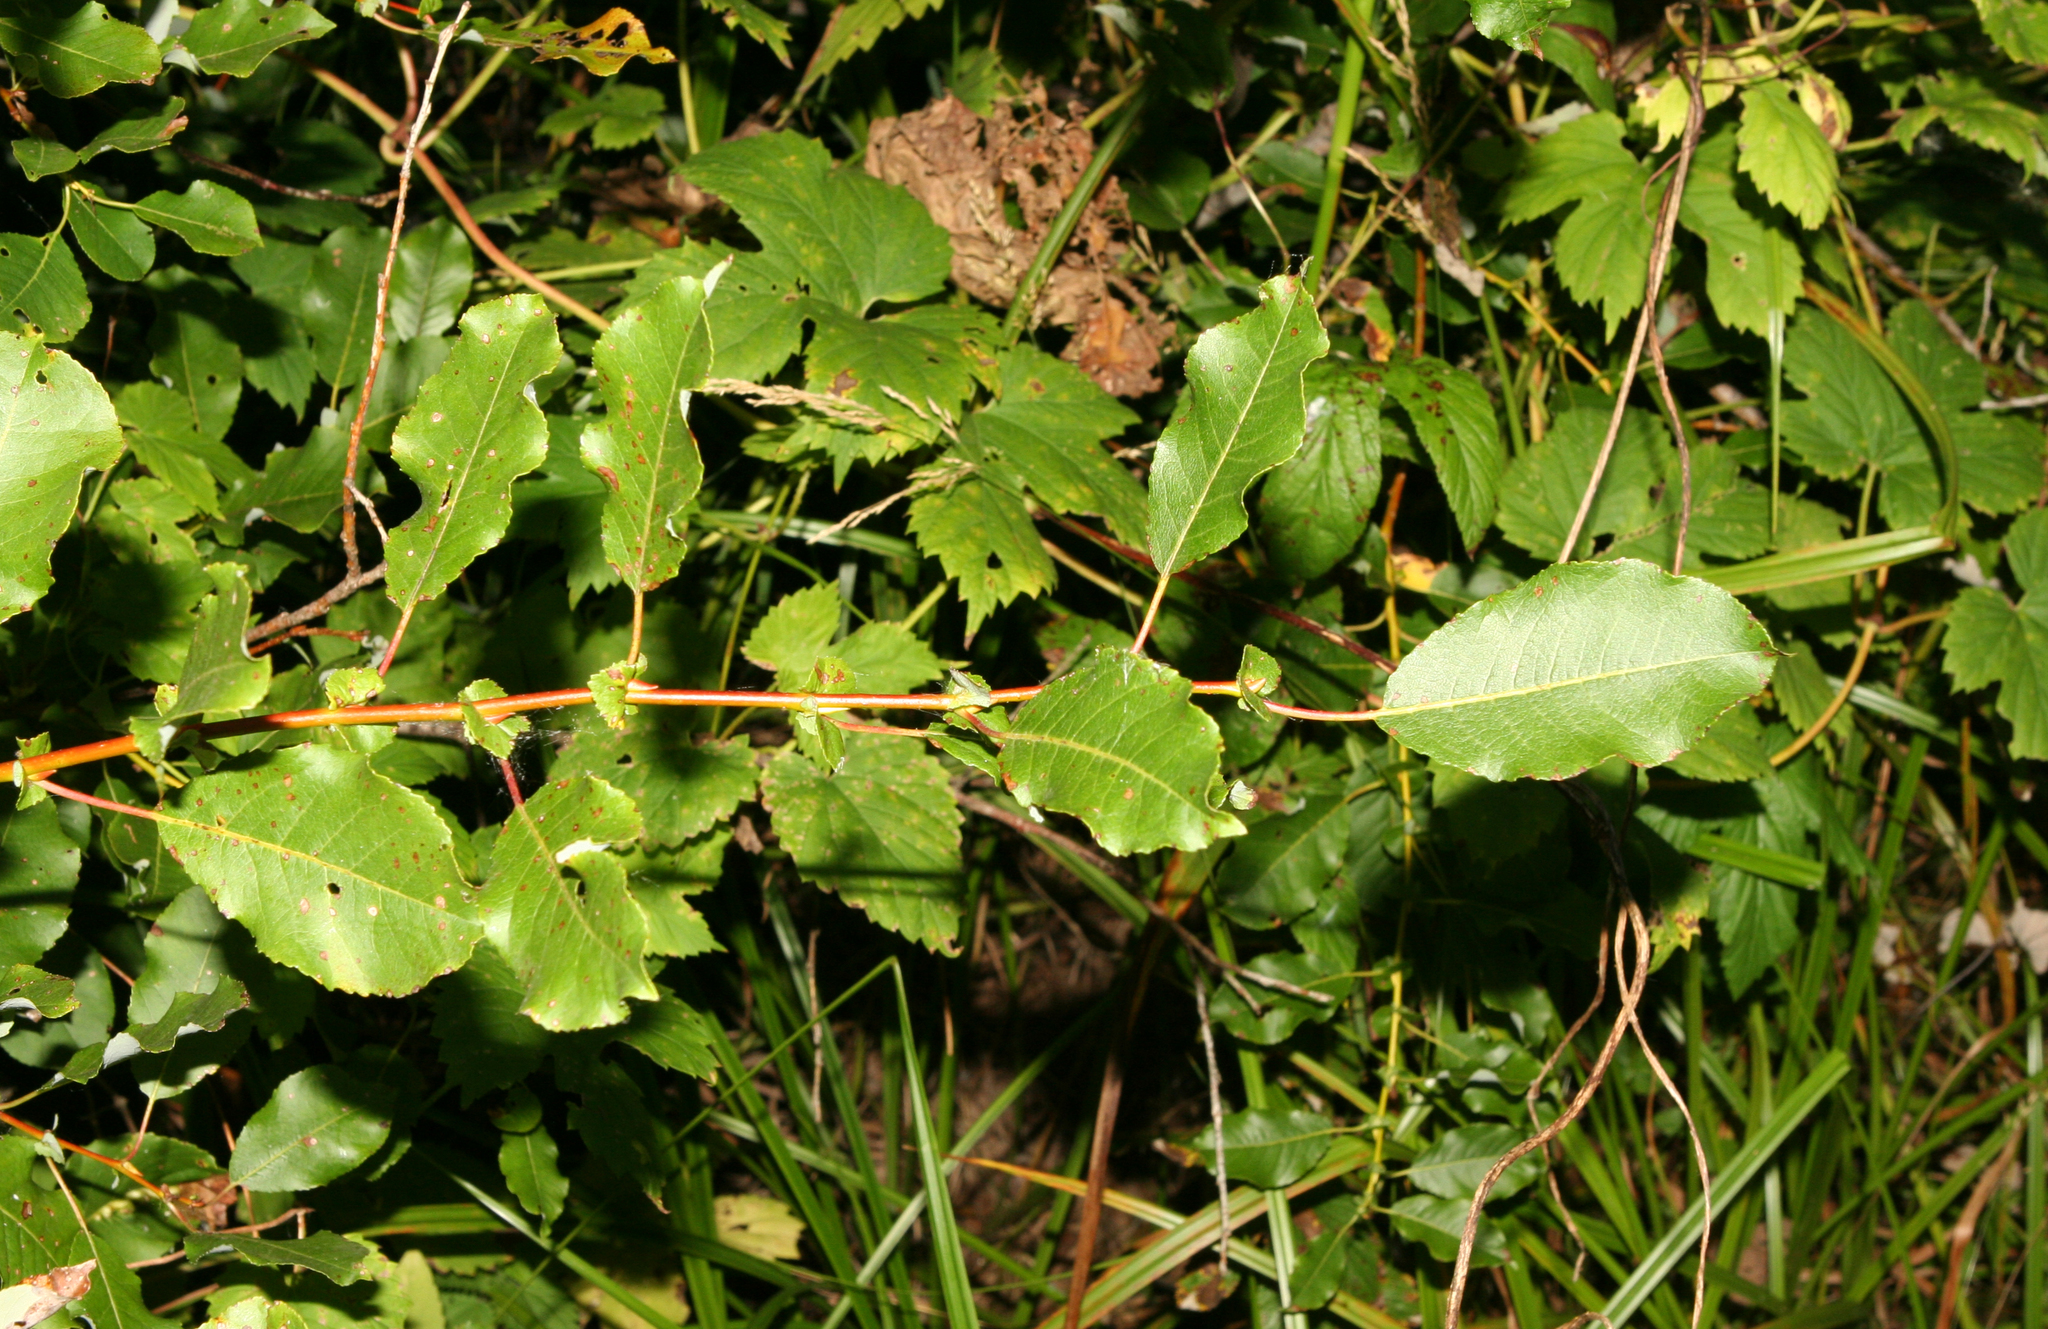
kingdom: Plantae
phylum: Tracheophyta
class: Magnoliopsida
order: Malpighiales
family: Salicaceae
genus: Salix
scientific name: Salix pyrolifolia
